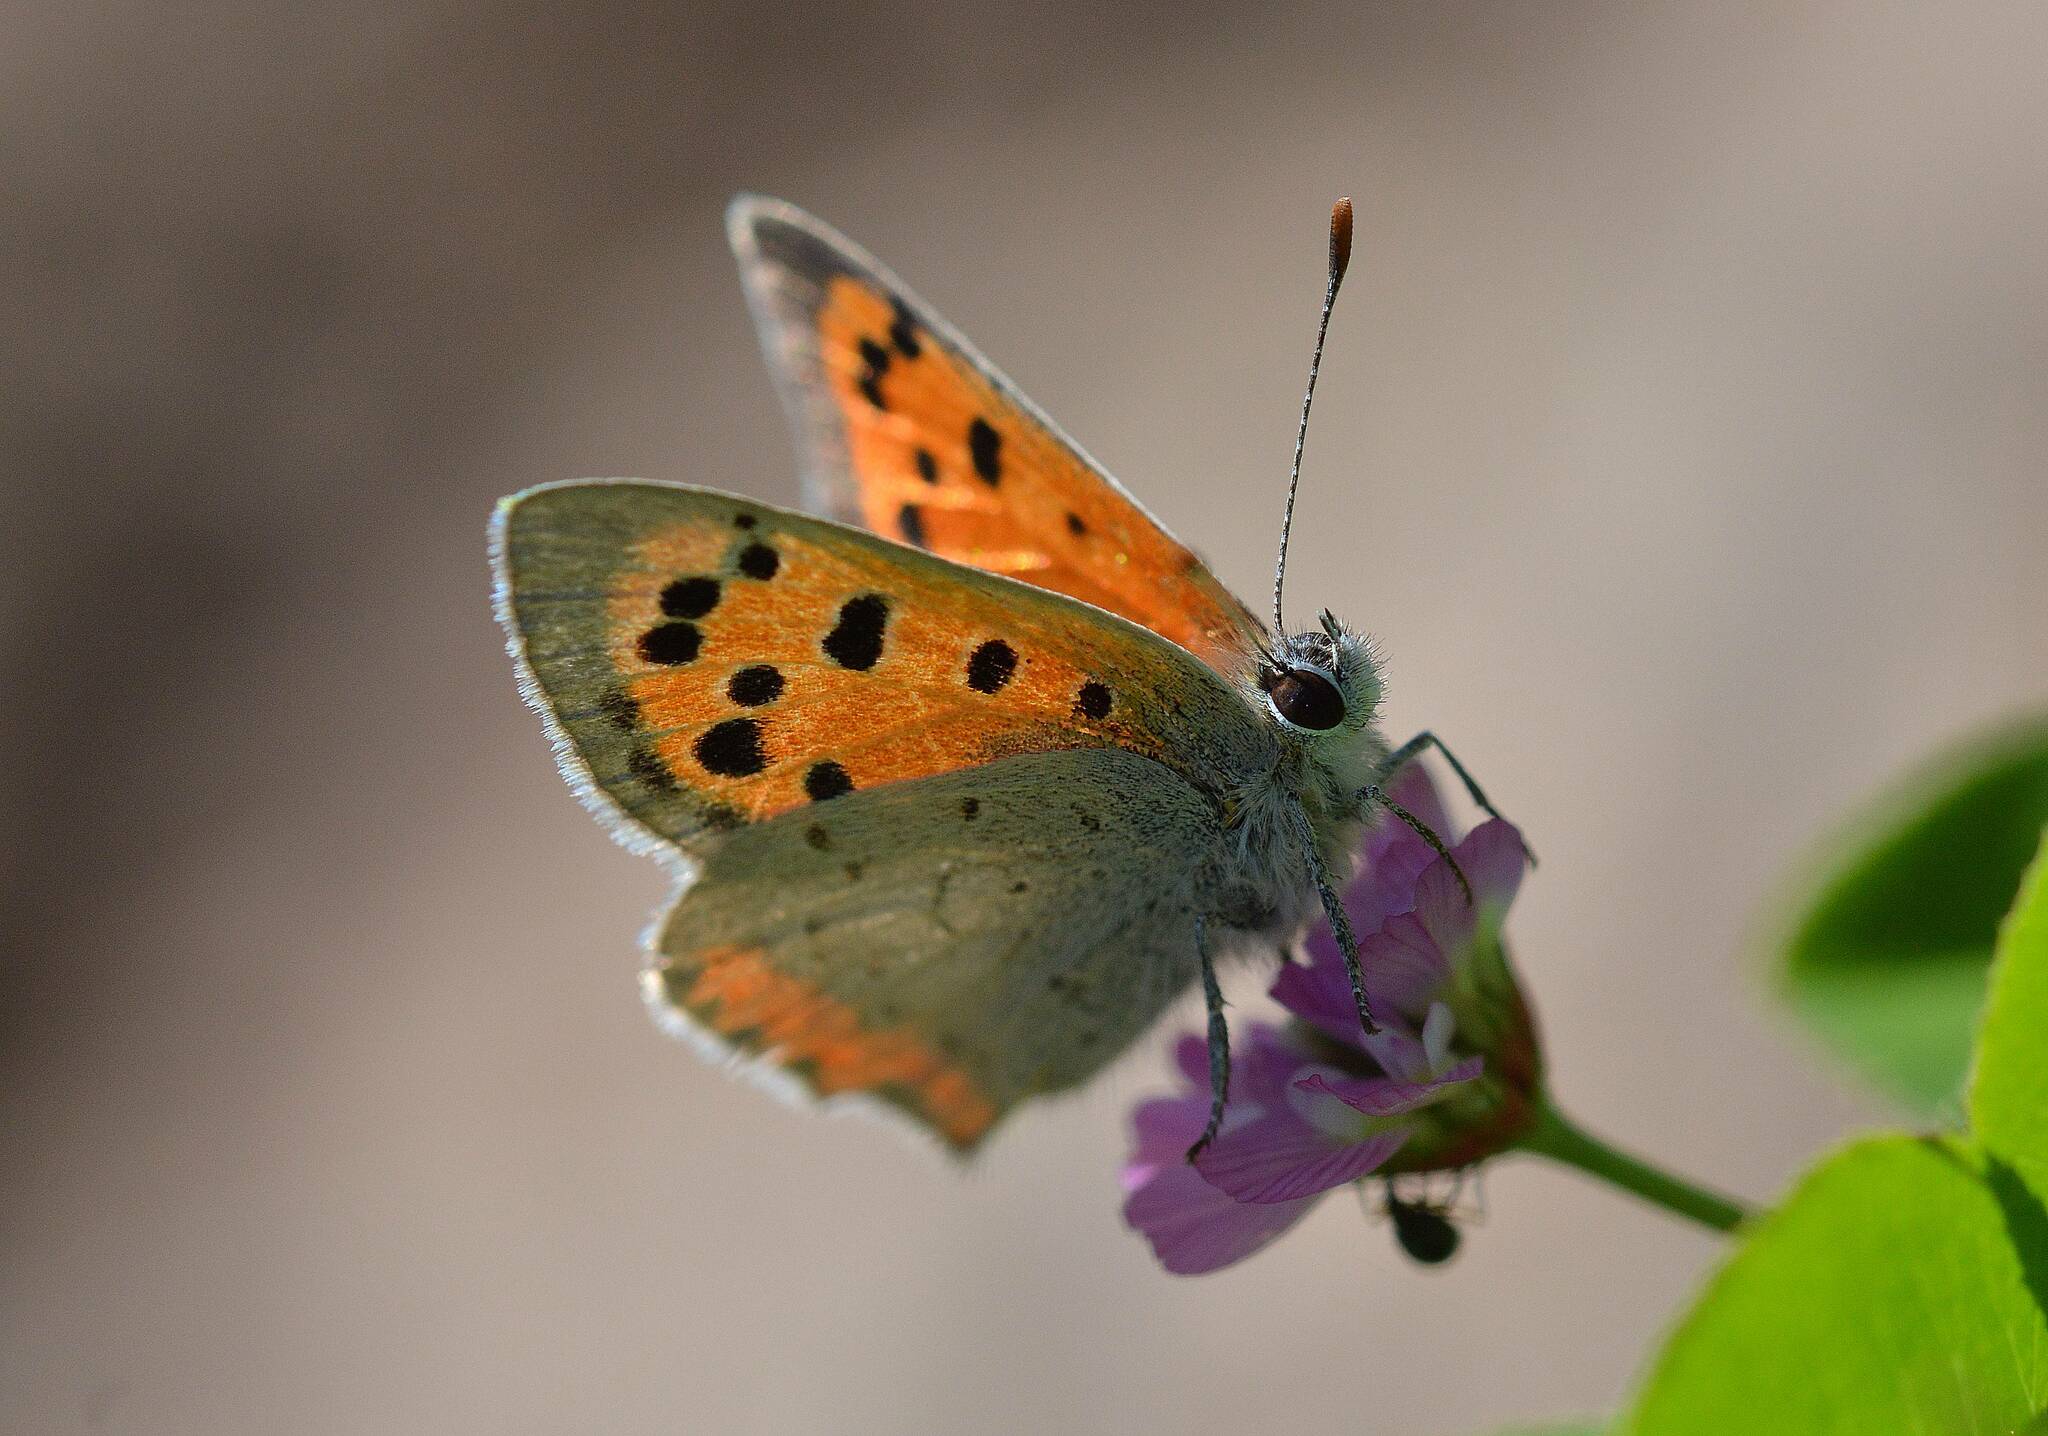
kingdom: Animalia
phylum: Arthropoda
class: Insecta
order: Lepidoptera
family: Lycaenidae
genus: Lycaena
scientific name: Lycaena phlaeas
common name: Small copper
